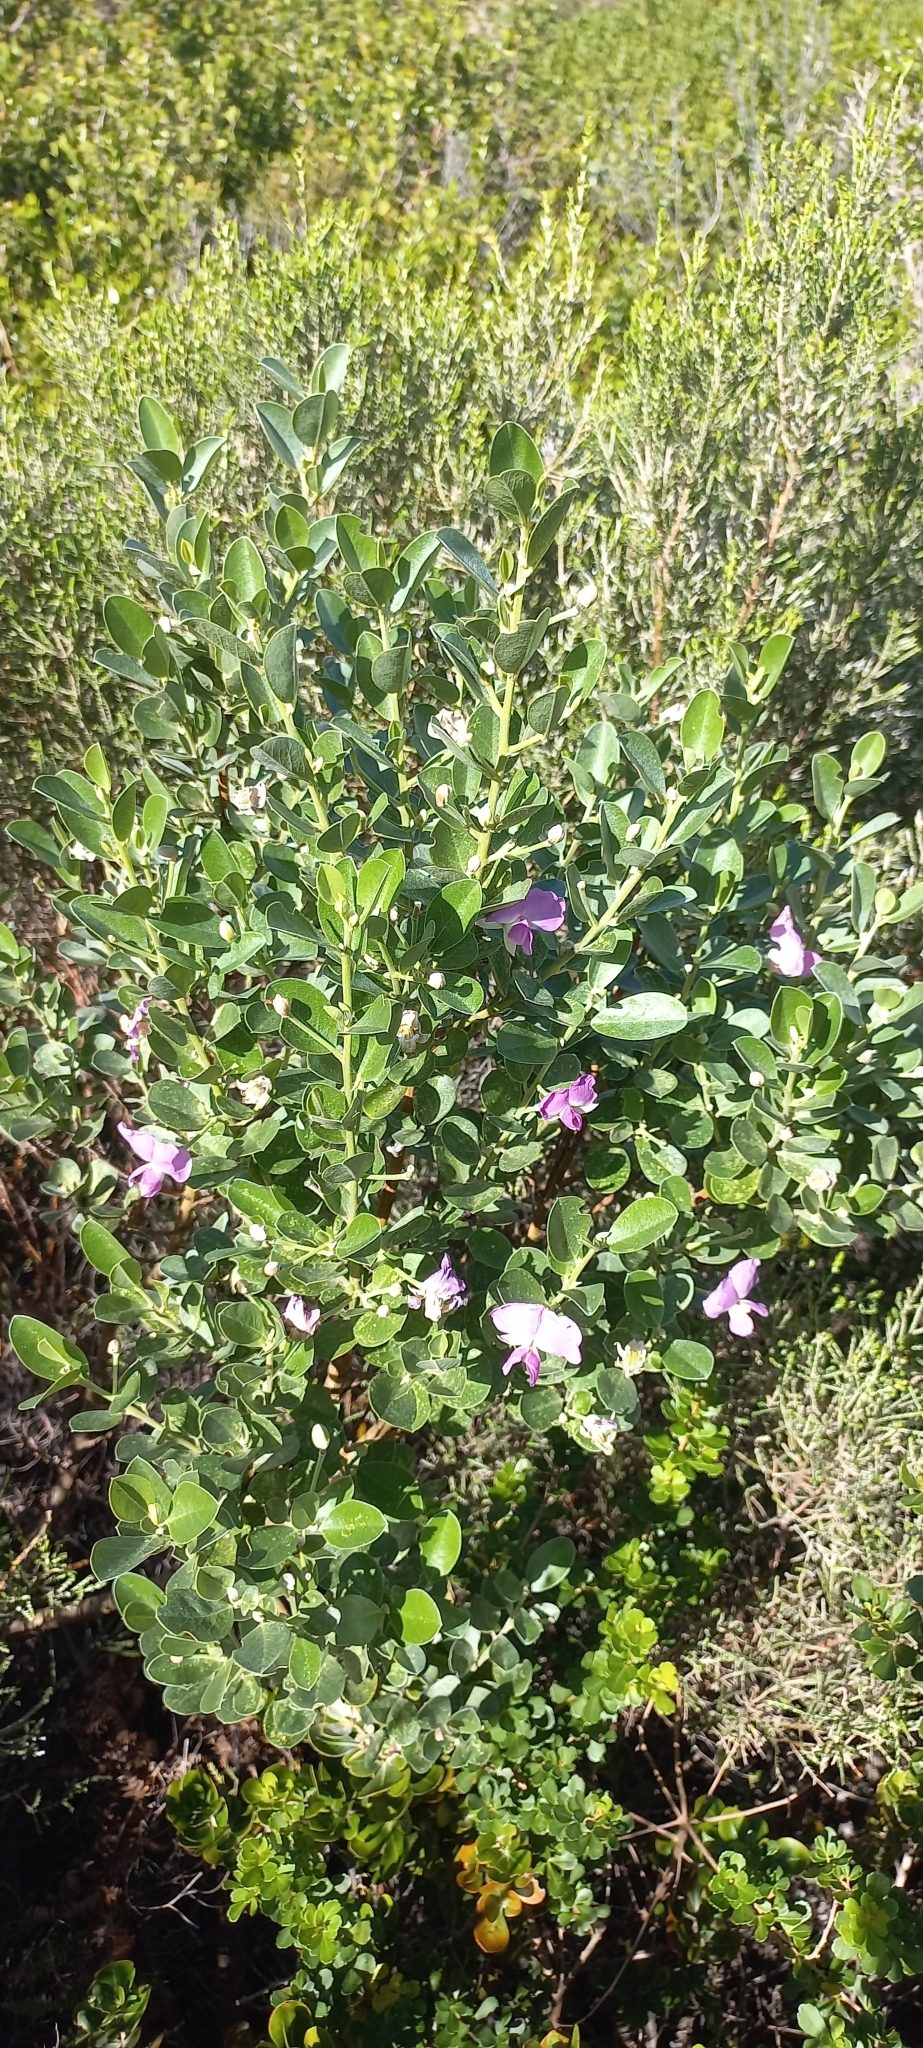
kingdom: Plantae
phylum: Tracheophyta
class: Magnoliopsida
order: Fabales
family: Fabaceae
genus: Podalyria
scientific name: Podalyria calyptrata
